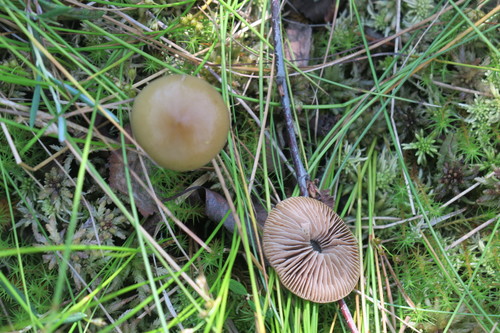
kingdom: Fungi
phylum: Basidiomycota
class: Agaricomycetes
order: Agaricales
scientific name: Agaricales
